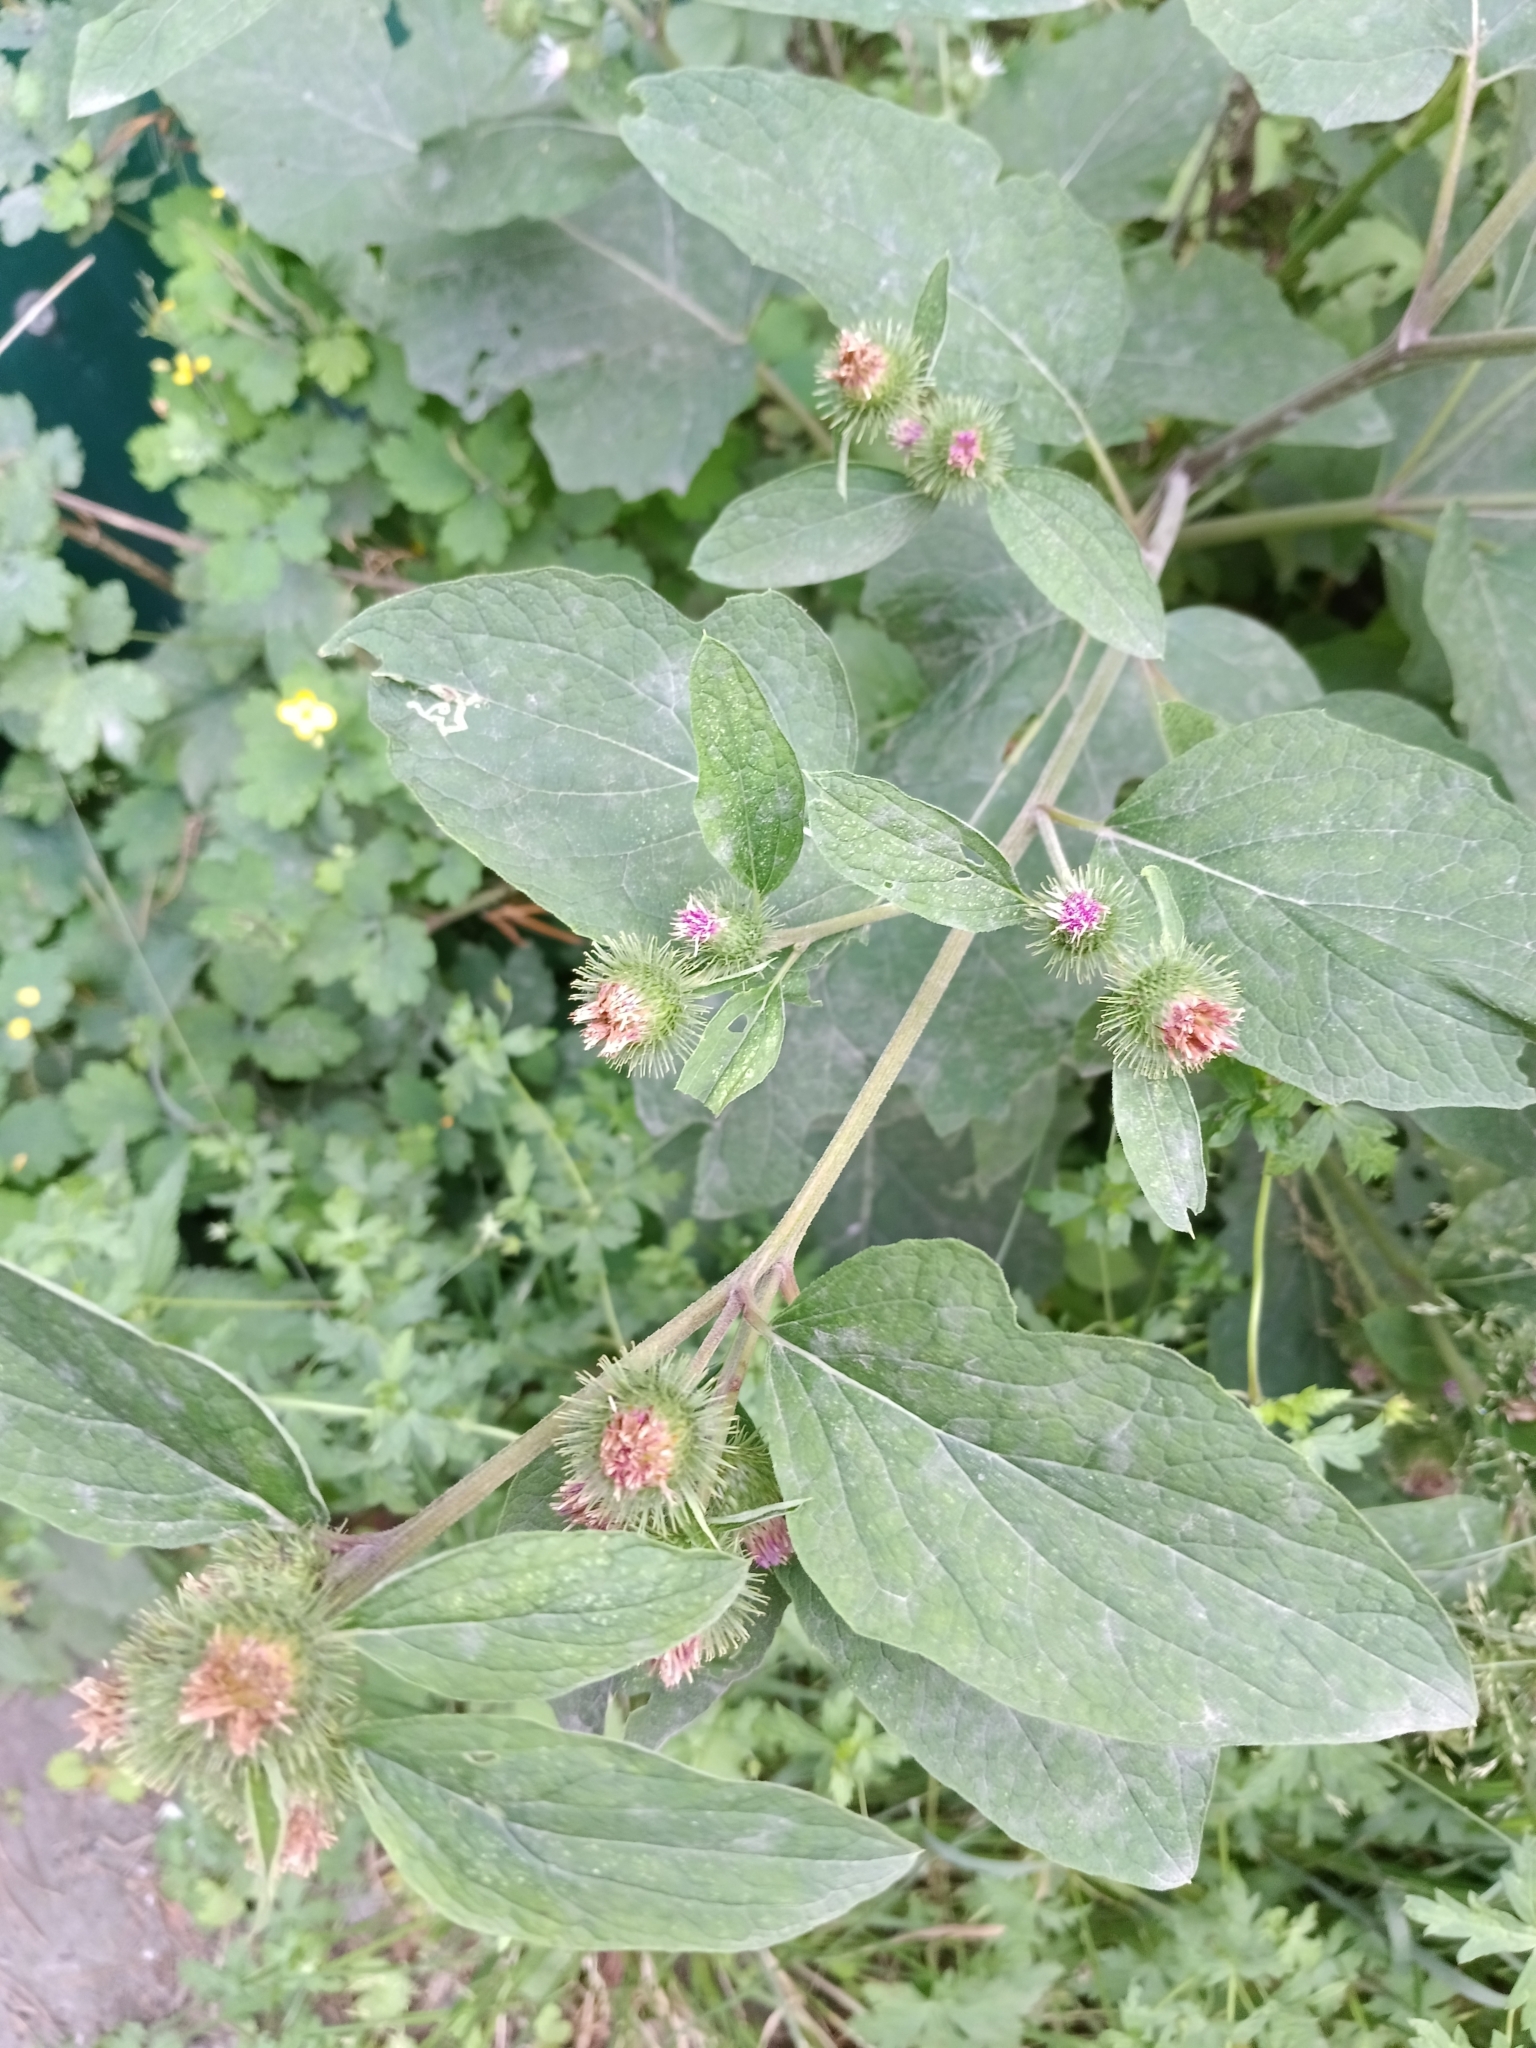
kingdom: Plantae
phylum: Tracheophyta
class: Magnoliopsida
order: Asterales
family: Asteraceae
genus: Arctium
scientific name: Arctium lappa
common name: Greater burdock
